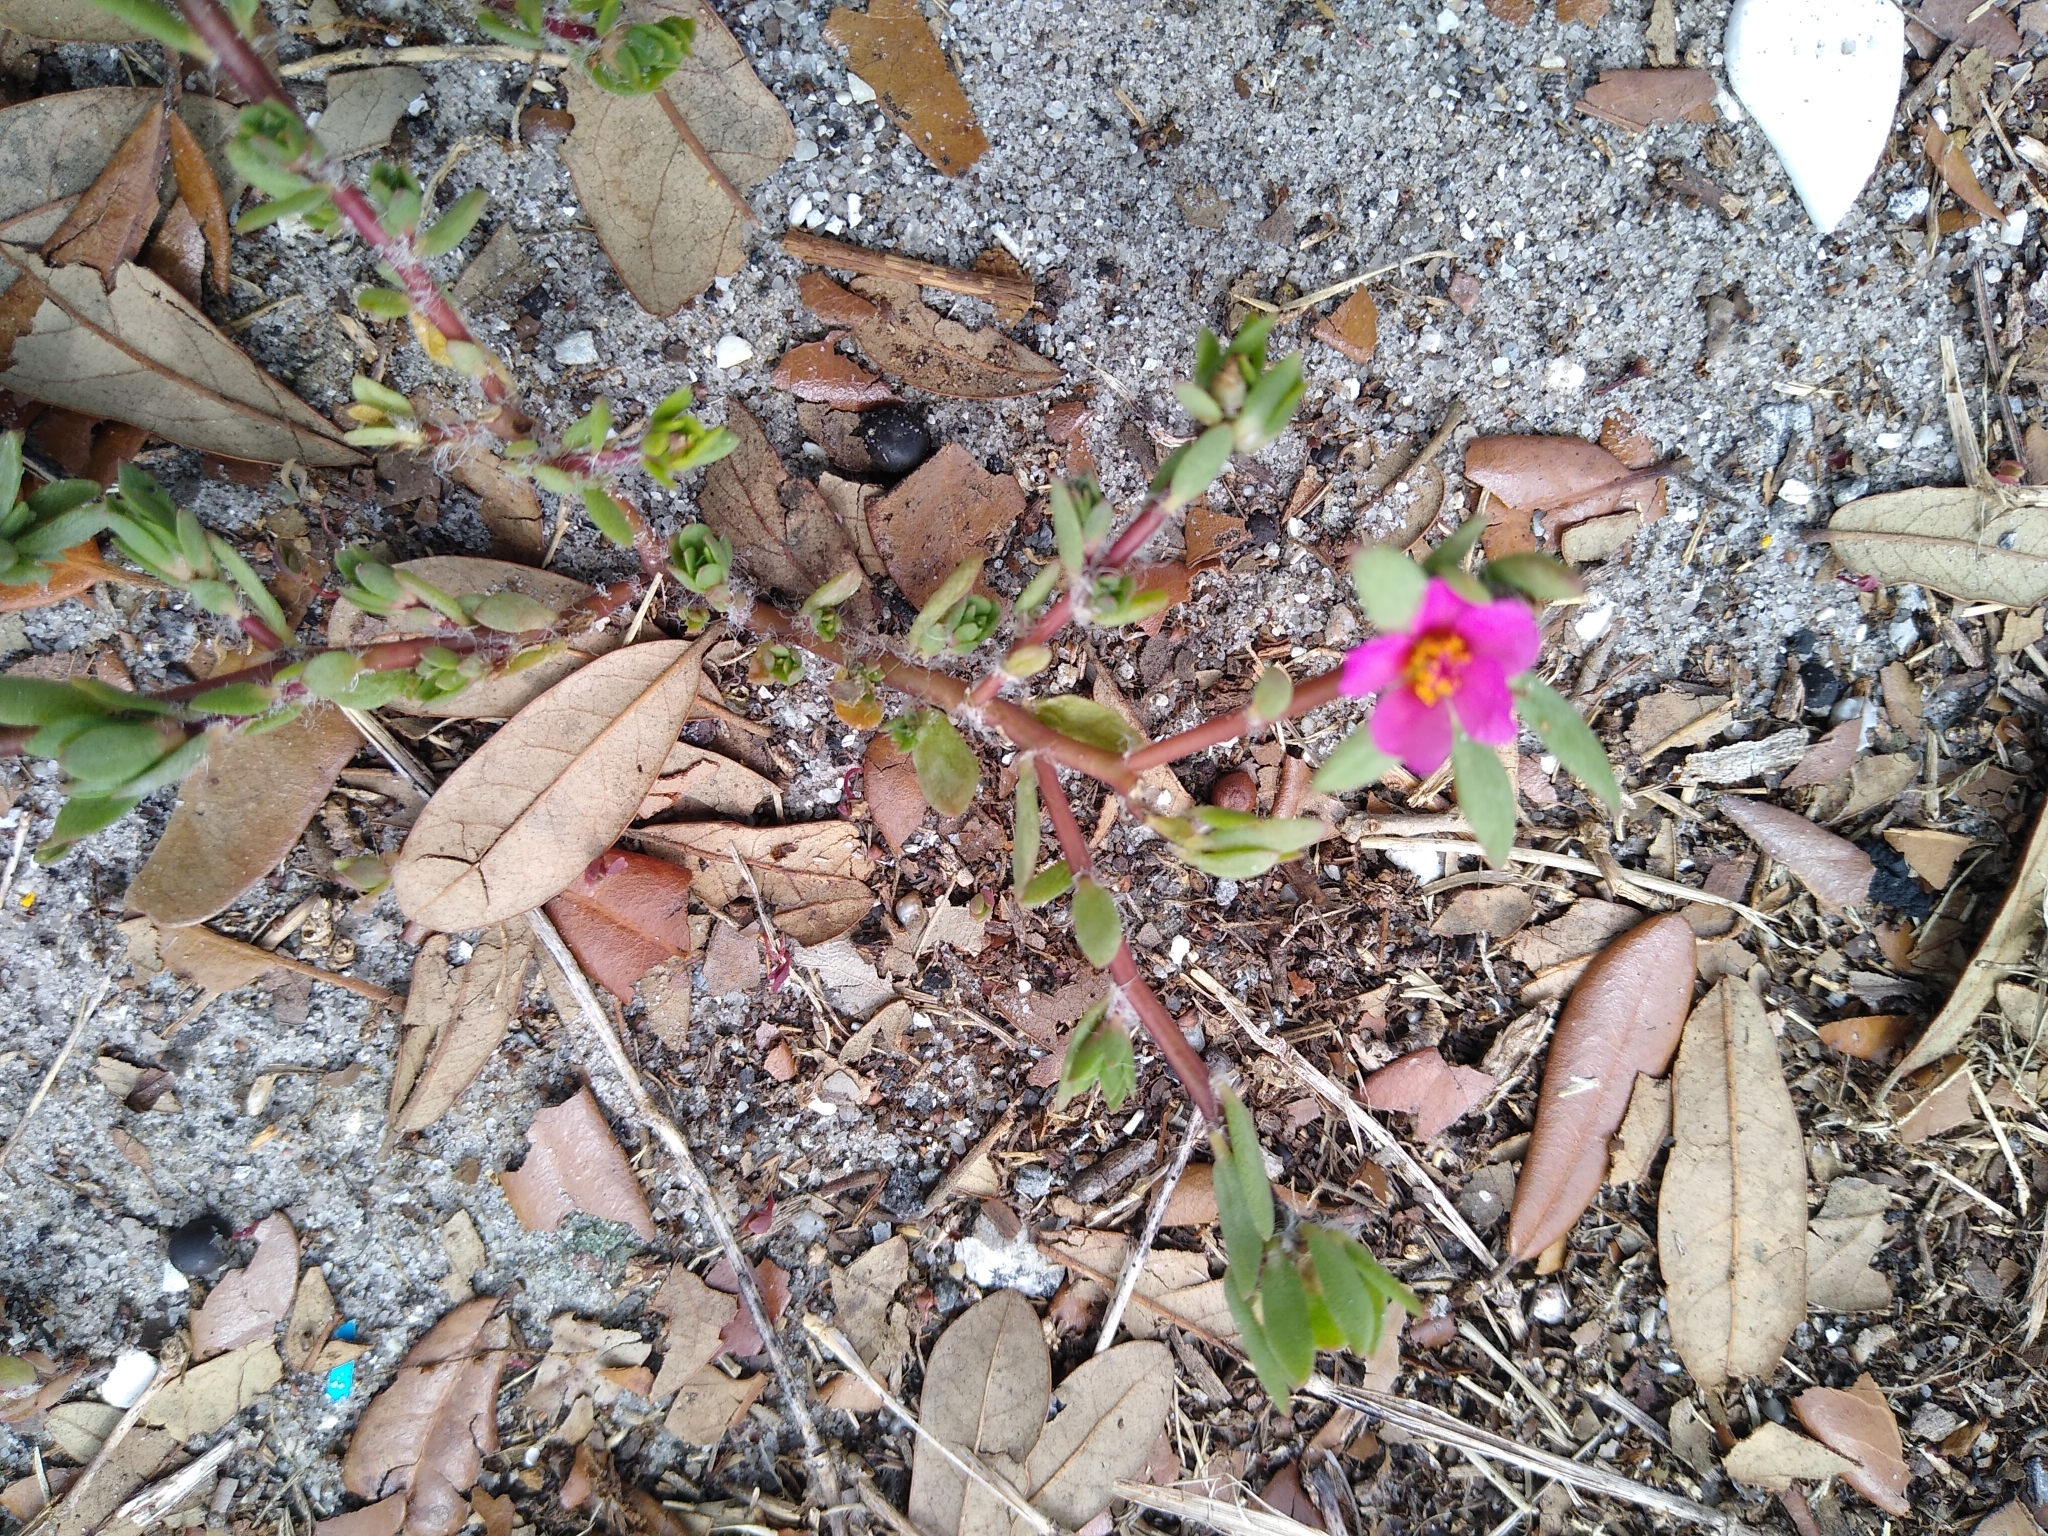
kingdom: Plantae
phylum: Tracheophyta
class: Magnoliopsida
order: Caryophyllales
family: Portulacaceae
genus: Portulaca
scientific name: Portulaca amilis
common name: Paraguayan purslane
